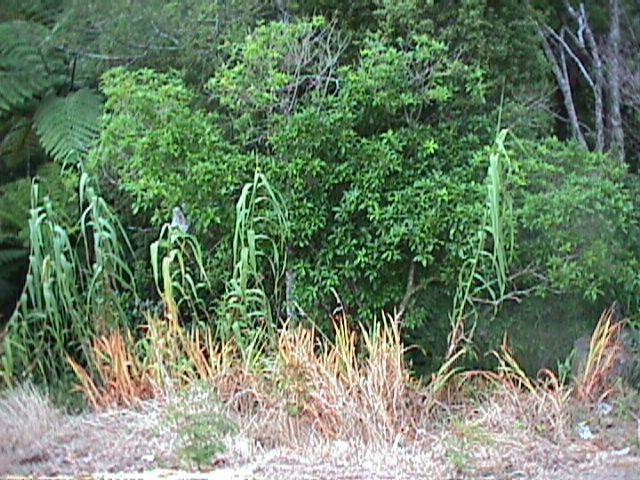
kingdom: Plantae
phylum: Tracheophyta
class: Liliopsida
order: Poales
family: Poaceae
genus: Arundo
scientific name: Arundo donax
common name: Giant reed
